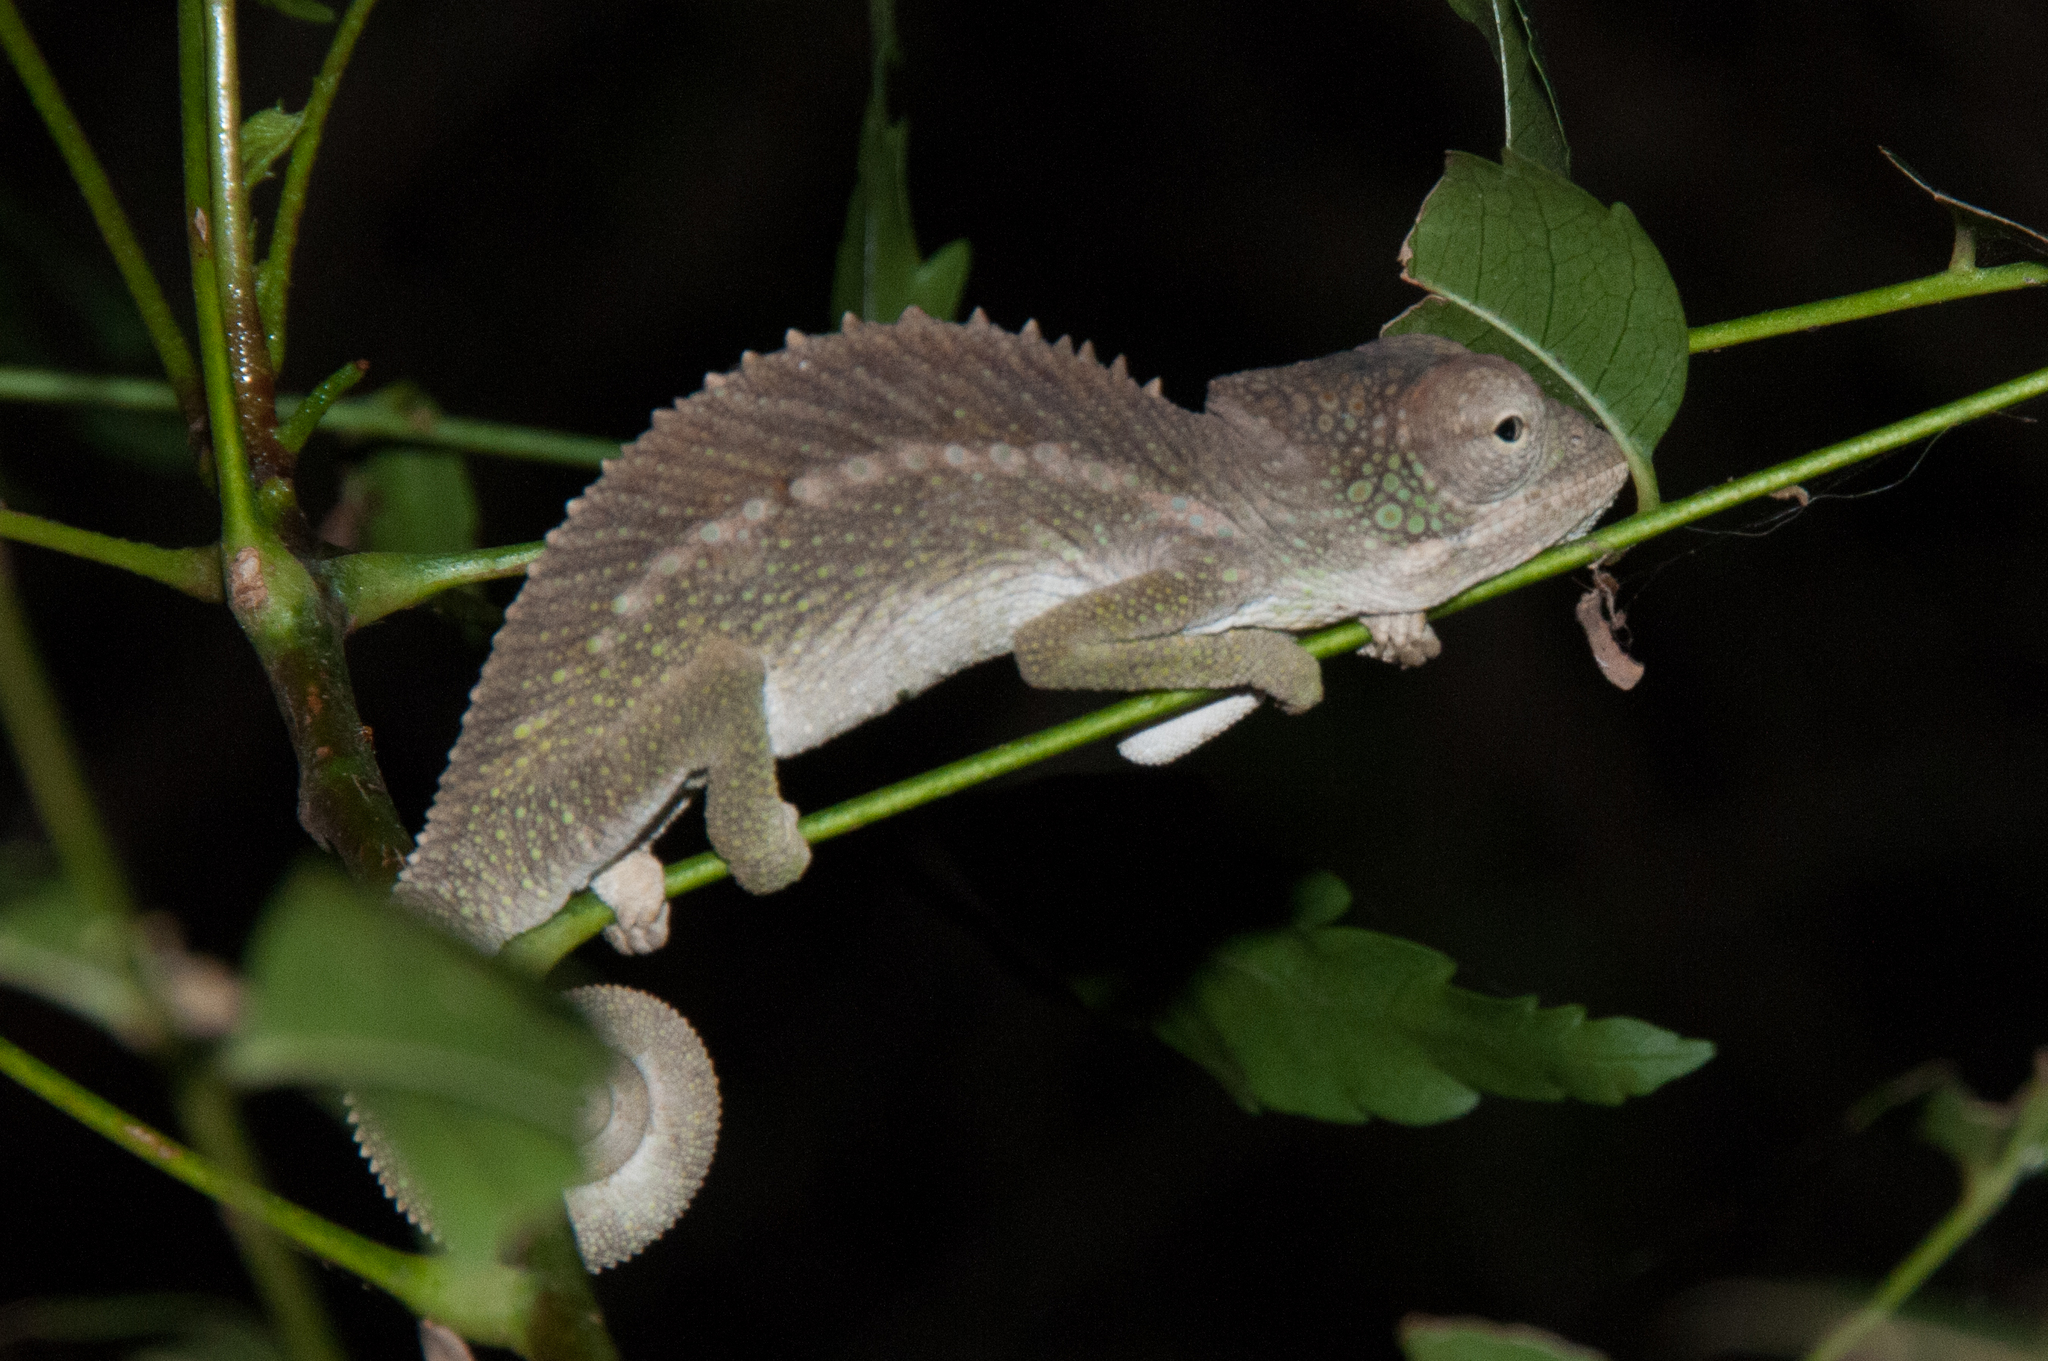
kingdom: Animalia
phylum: Chordata
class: Squamata
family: Chamaeleonidae
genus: Furcifer
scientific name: Furcifer verrucosus
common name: Warty chameleon
